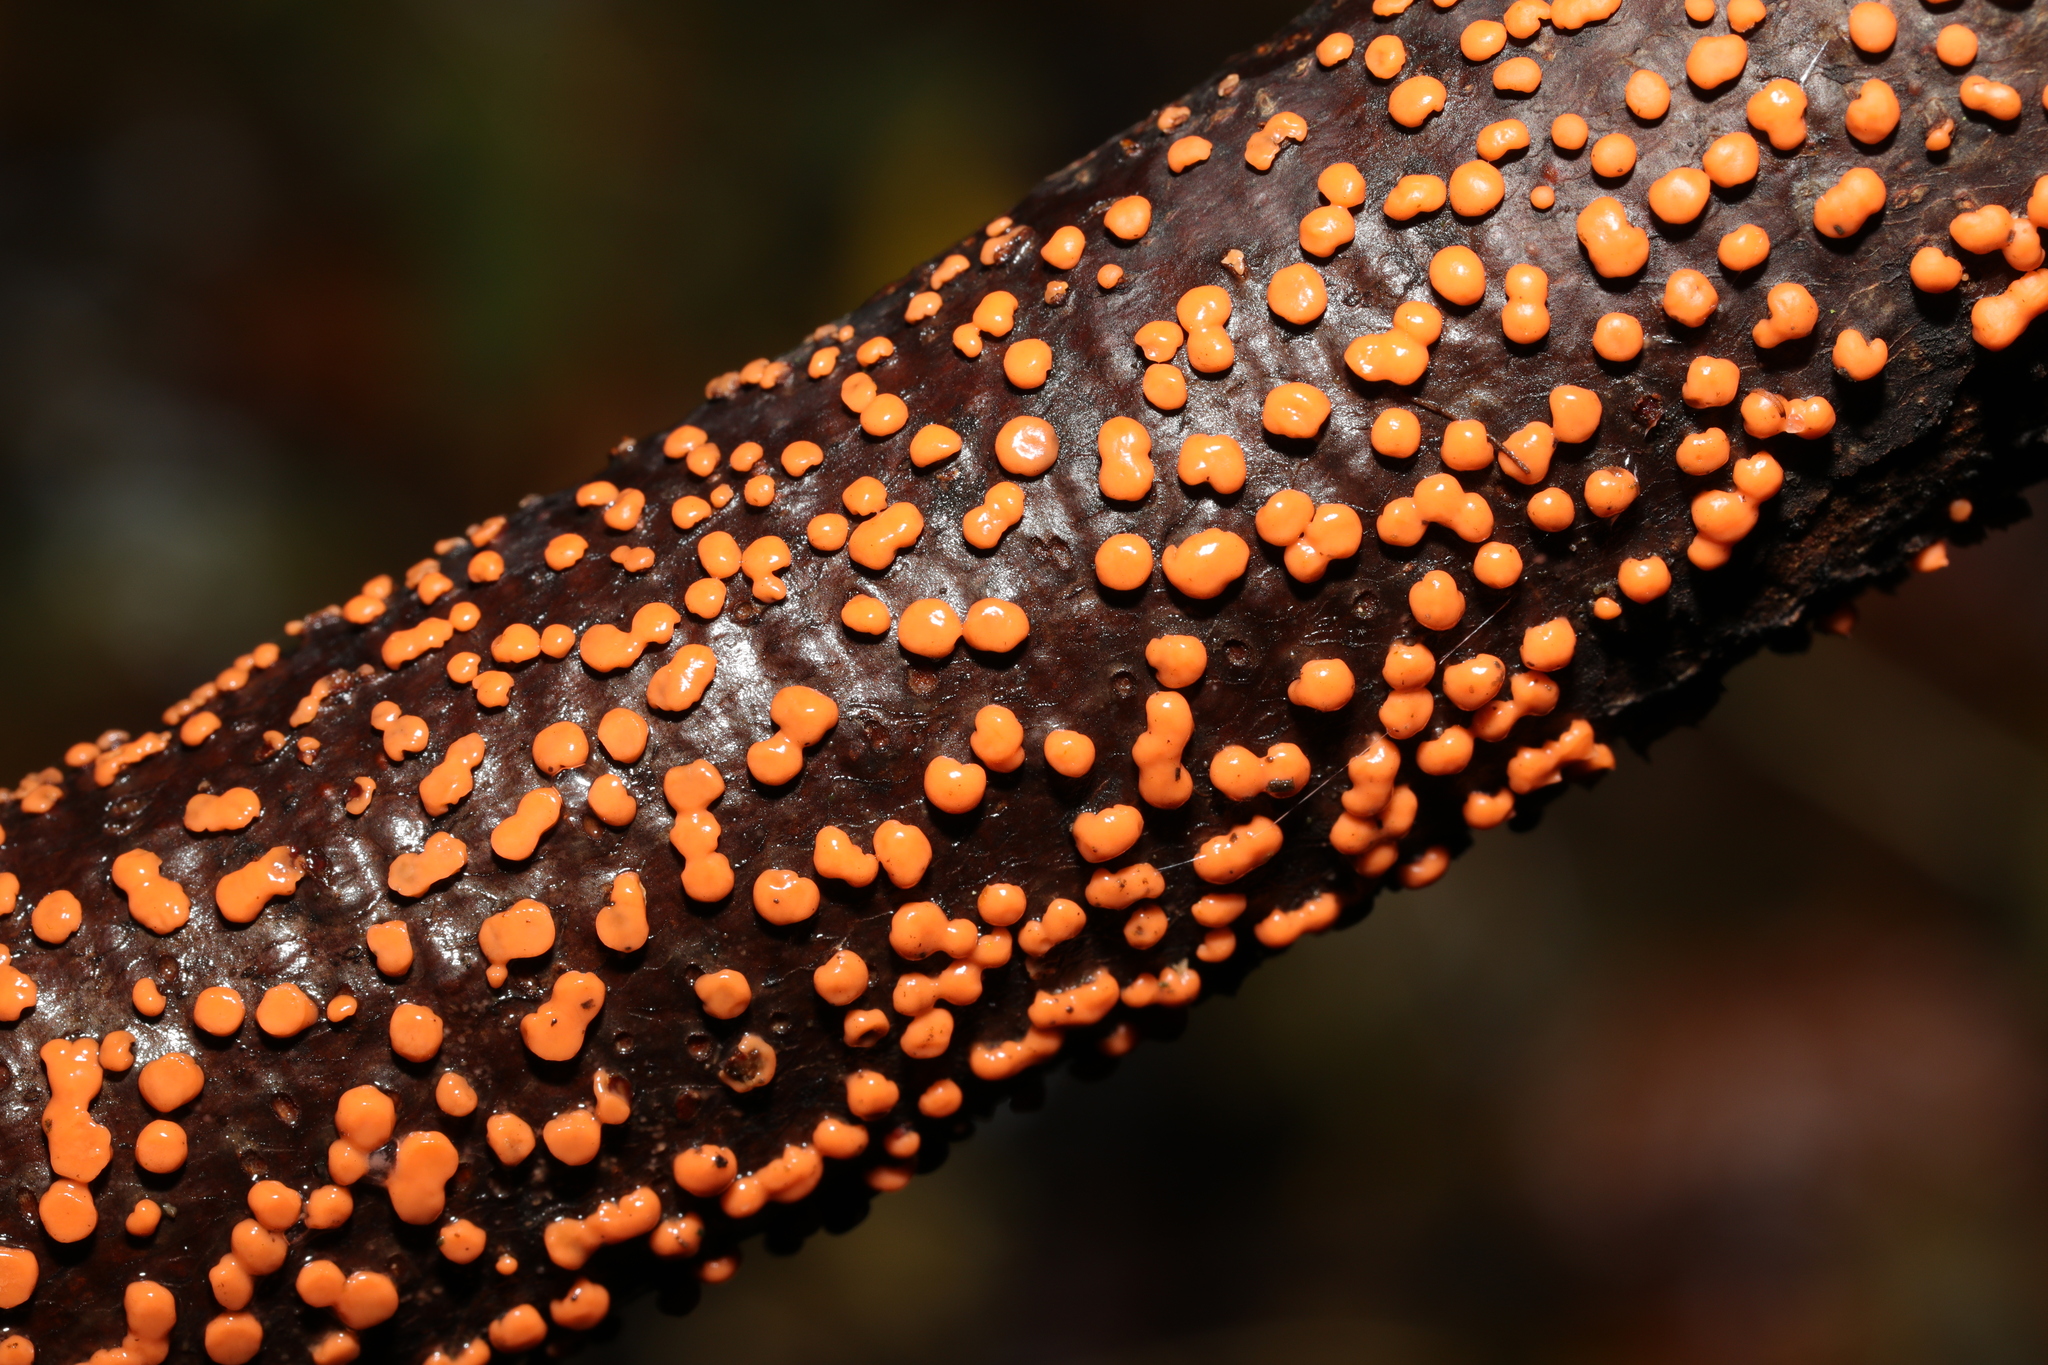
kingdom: Fungi
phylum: Ascomycota
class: Sordariomycetes
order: Hypocreales
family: Nectriaceae
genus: Nectria
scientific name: Nectria cinnabarina
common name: Coral spot
